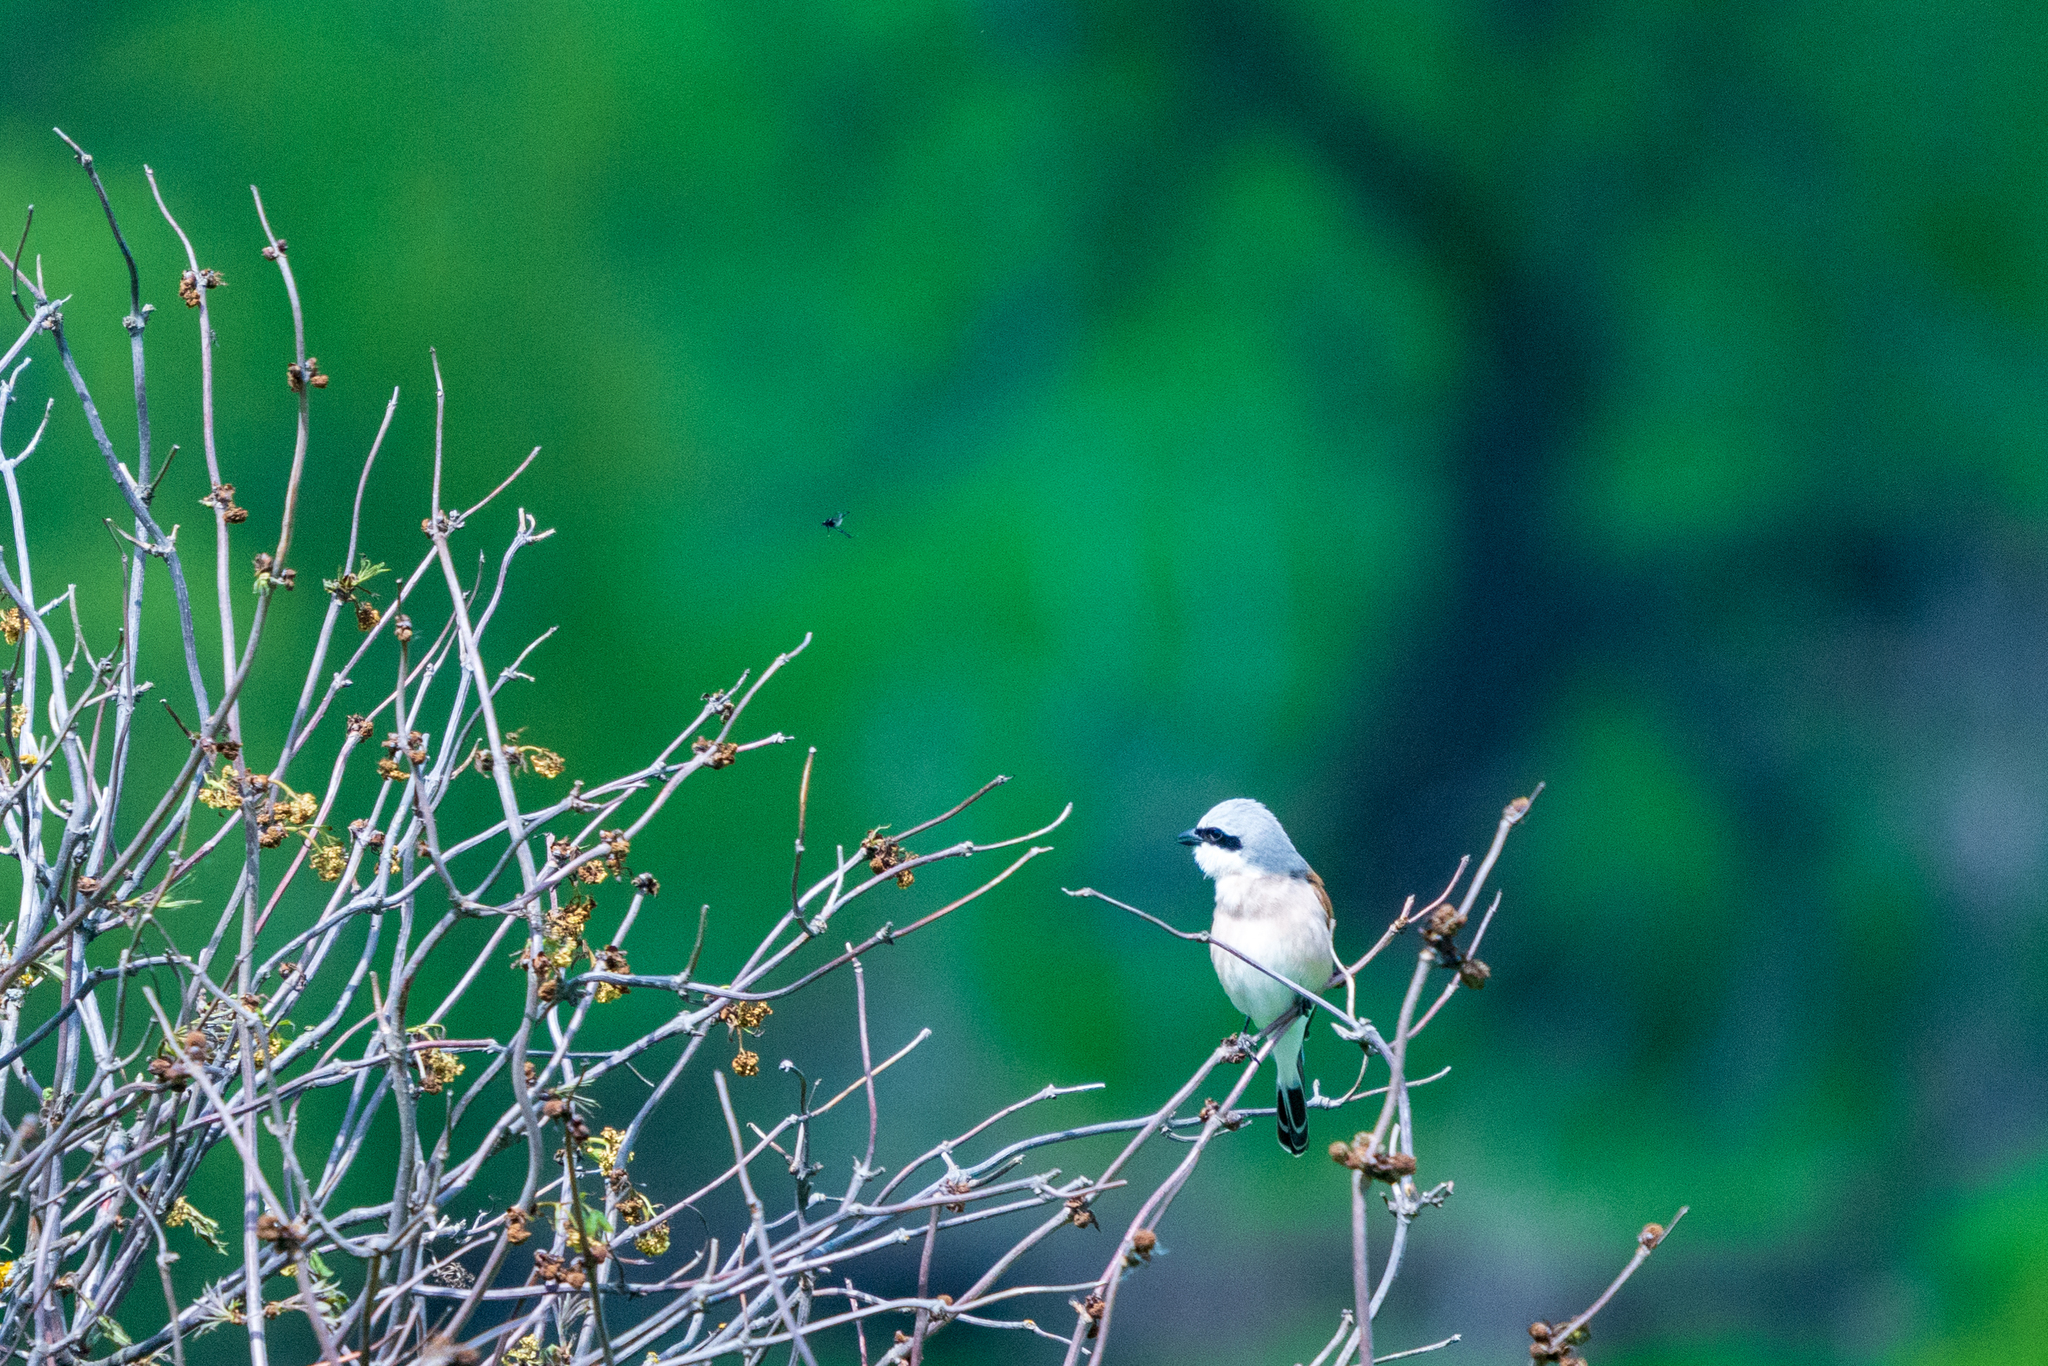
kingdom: Animalia
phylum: Chordata
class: Aves
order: Passeriformes
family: Laniidae
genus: Lanius
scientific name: Lanius collurio
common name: Red-backed shrike
